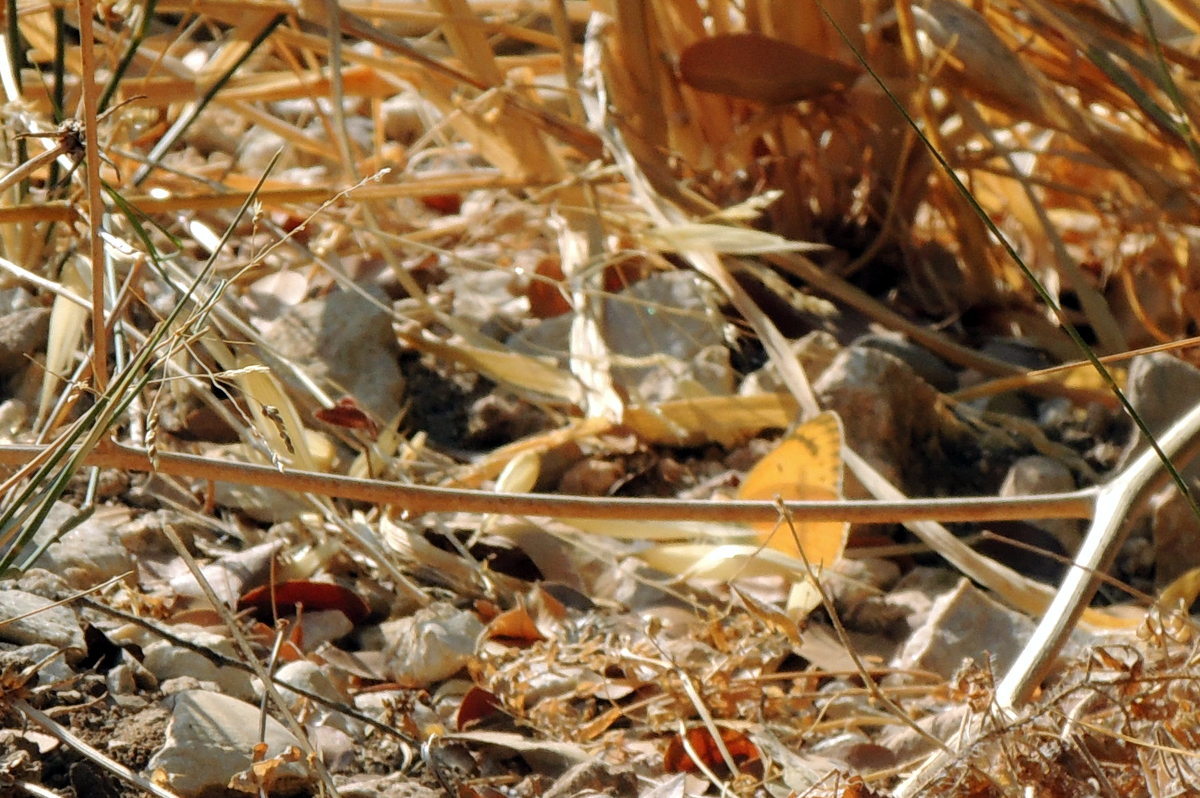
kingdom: Animalia
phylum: Arthropoda
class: Insecta
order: Lepidoptera
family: Pieridae
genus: Colotis
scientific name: Colotis fausta
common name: Large salmon arab
